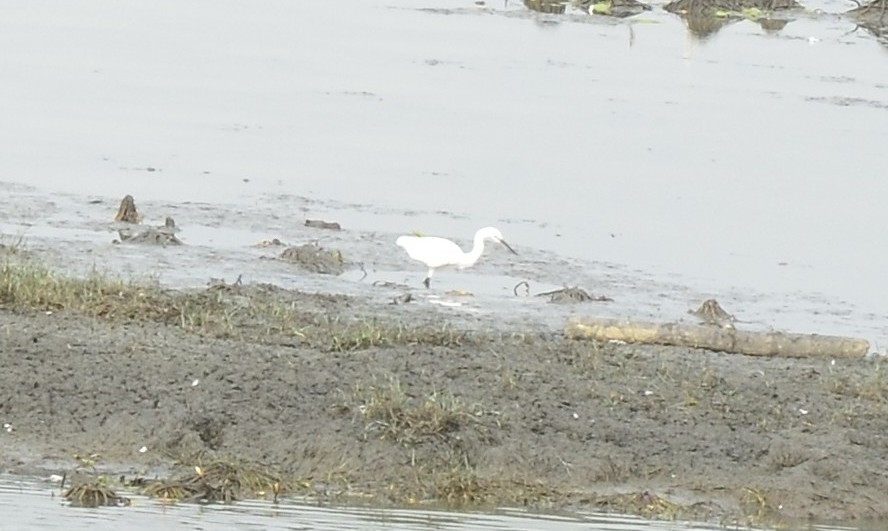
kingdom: Animalia
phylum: Chordata
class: Aves
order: Pelecaniformes
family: Ardeidae
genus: Egretta
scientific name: Egretta garzetta
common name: Little egret
